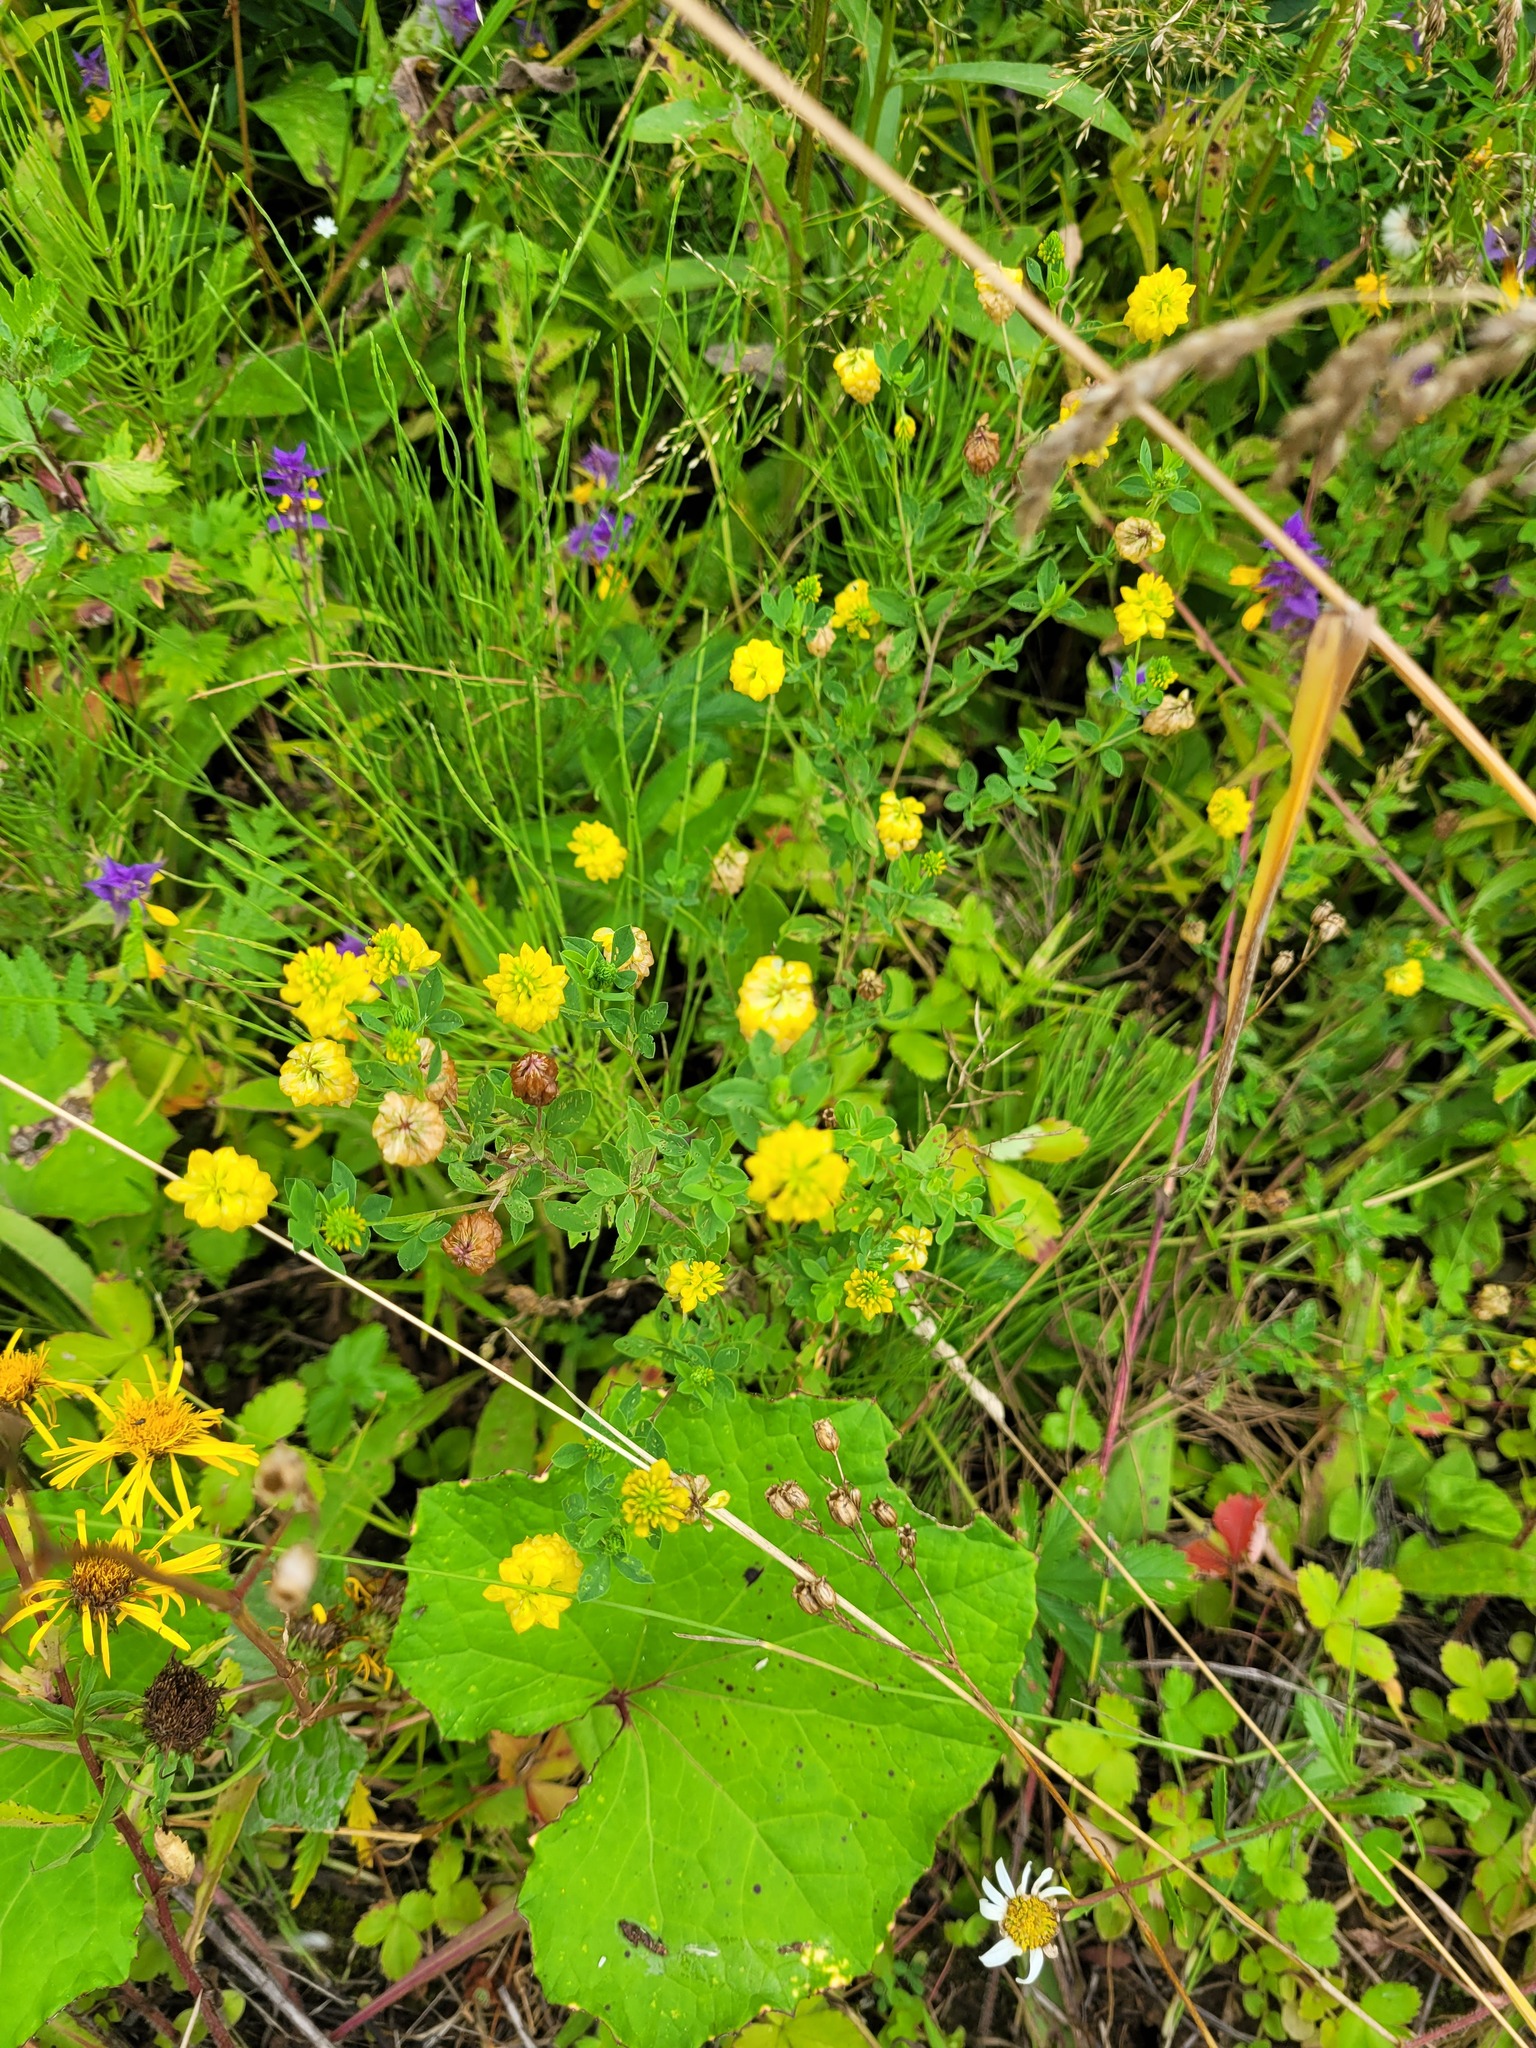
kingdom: Plantae
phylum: Tracheophyta
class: Magnoliopsida
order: Fabales
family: Fabaceae
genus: Trifolium
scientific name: Trifolium aureum
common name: Golden clover
